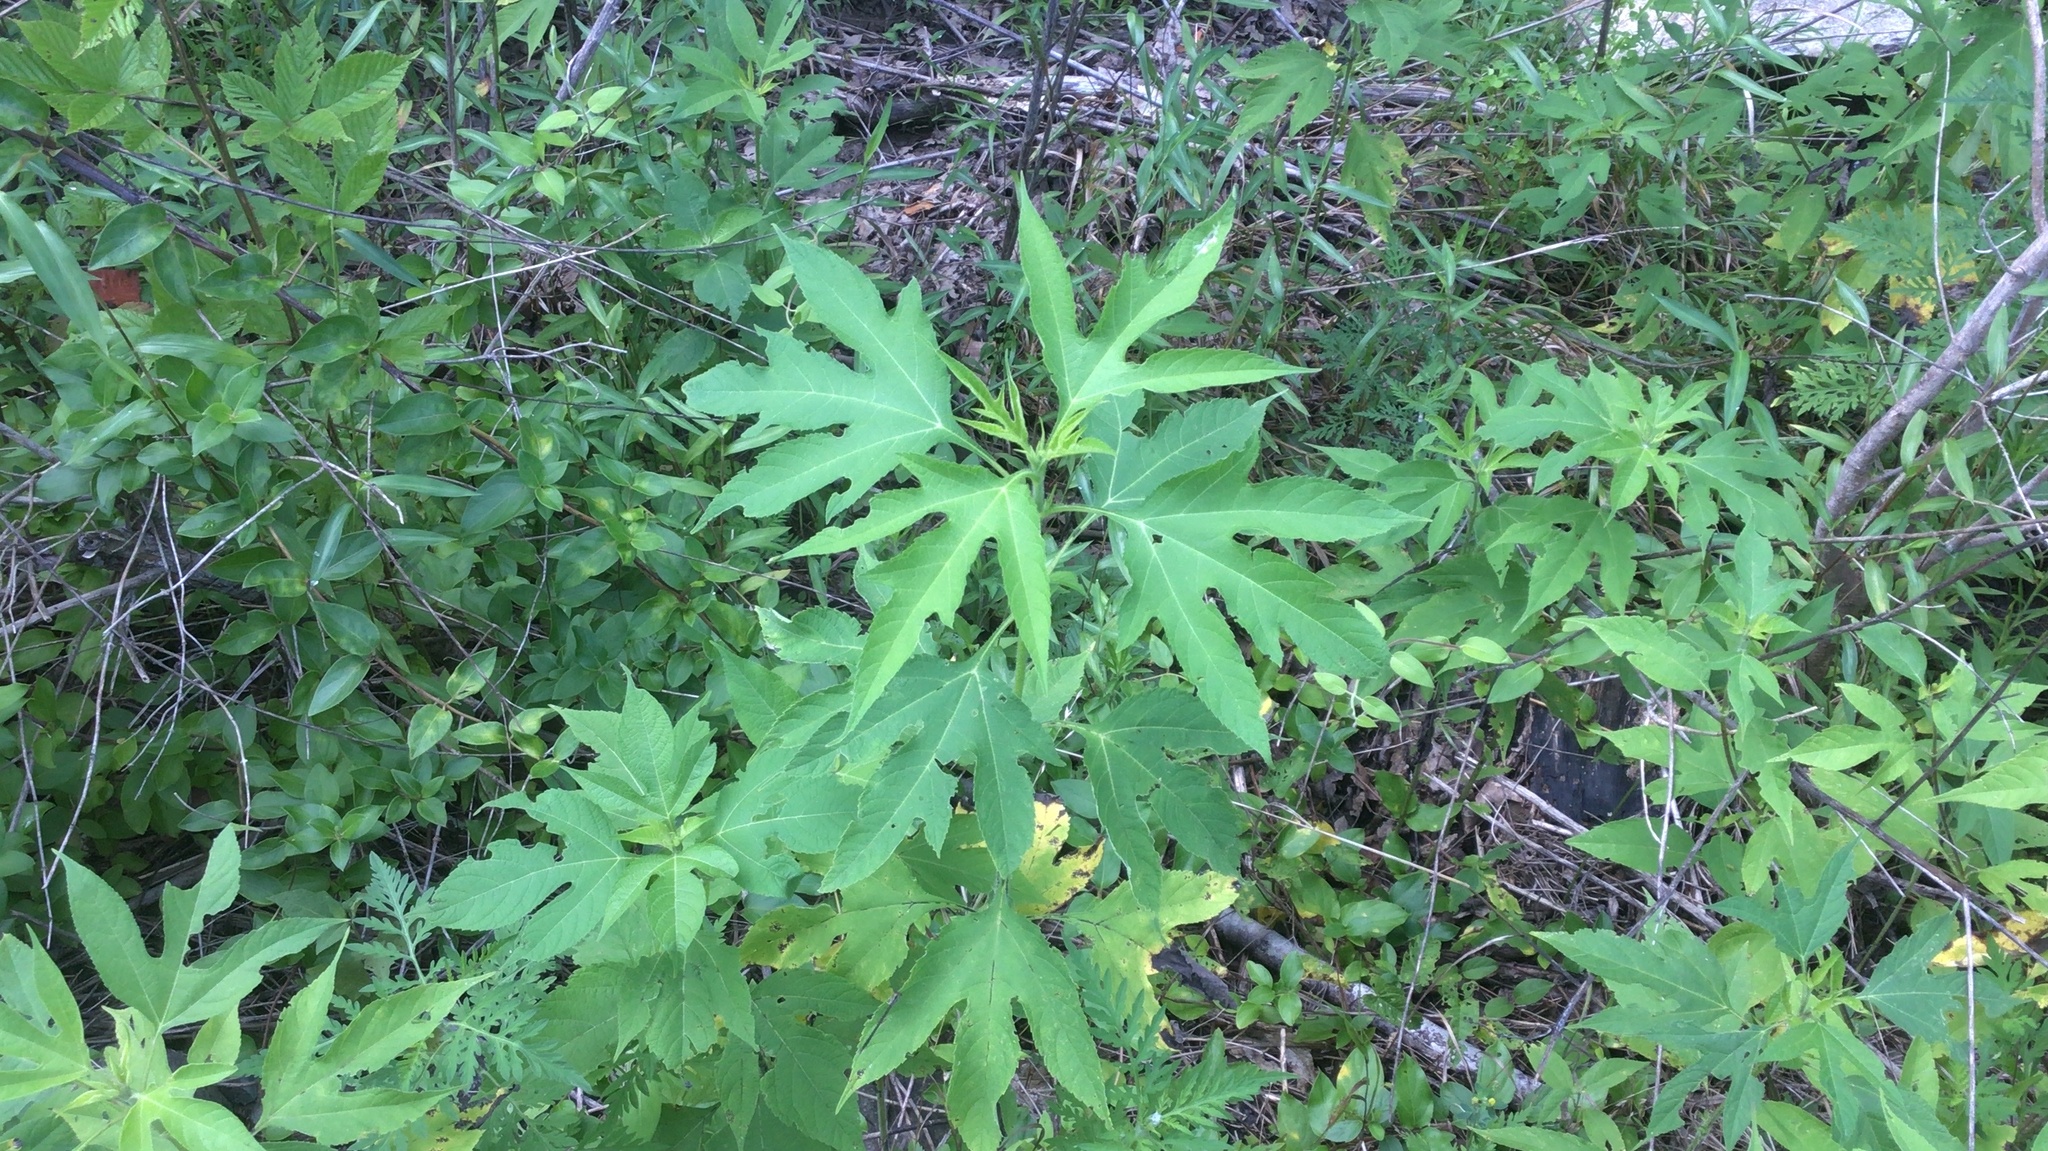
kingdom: Plantae
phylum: Tracheophyta
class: Magnoliopsida
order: Asterales
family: Asteraceae
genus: Ambrosia
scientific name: Ambrosia trifida
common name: Giant ragweed
